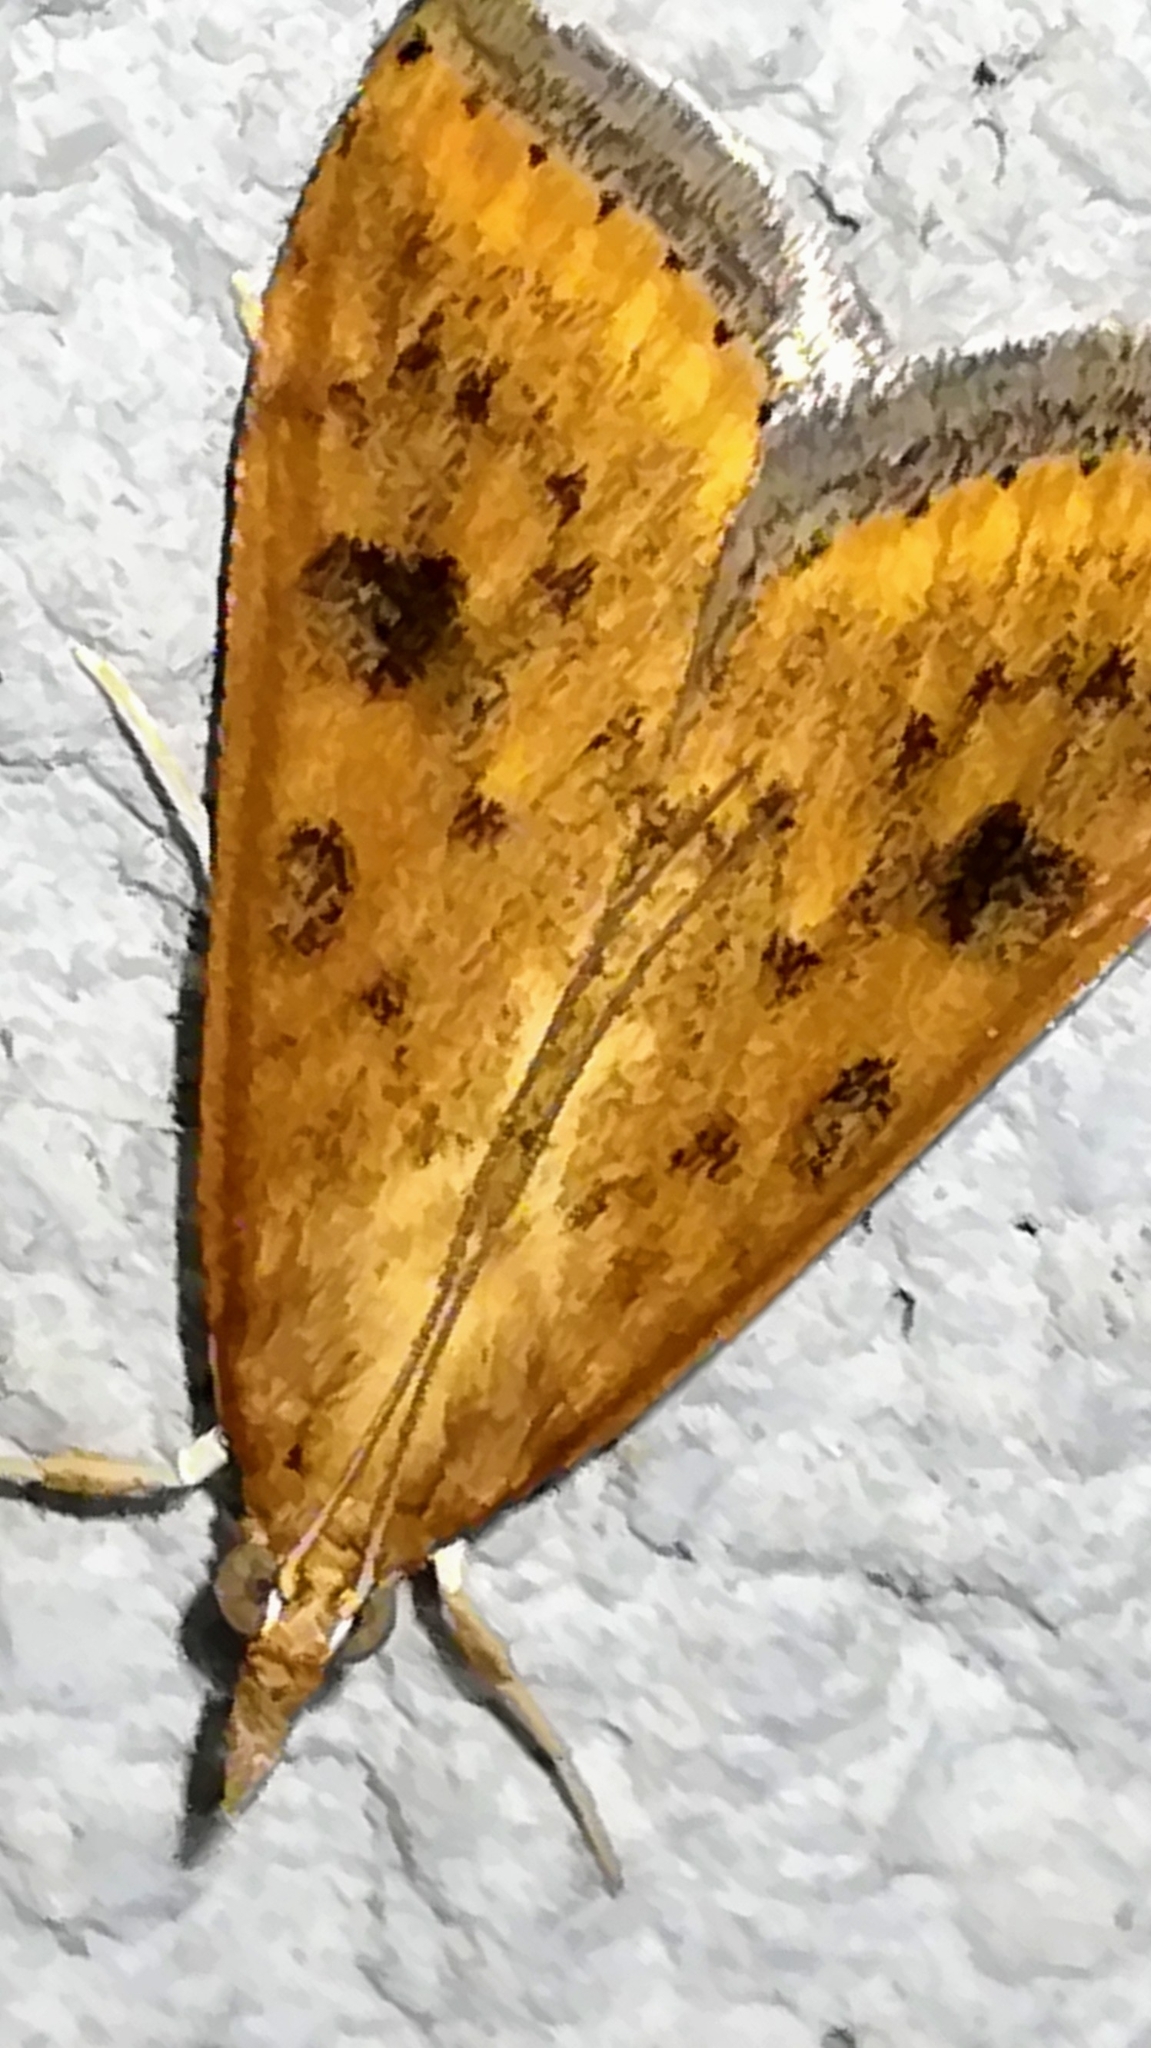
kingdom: Animalia
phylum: Arthropoda
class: Insecta
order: Lepidoptera
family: Crambidae
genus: Udea
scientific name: Udea ferrugalis
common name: Rusty dot
